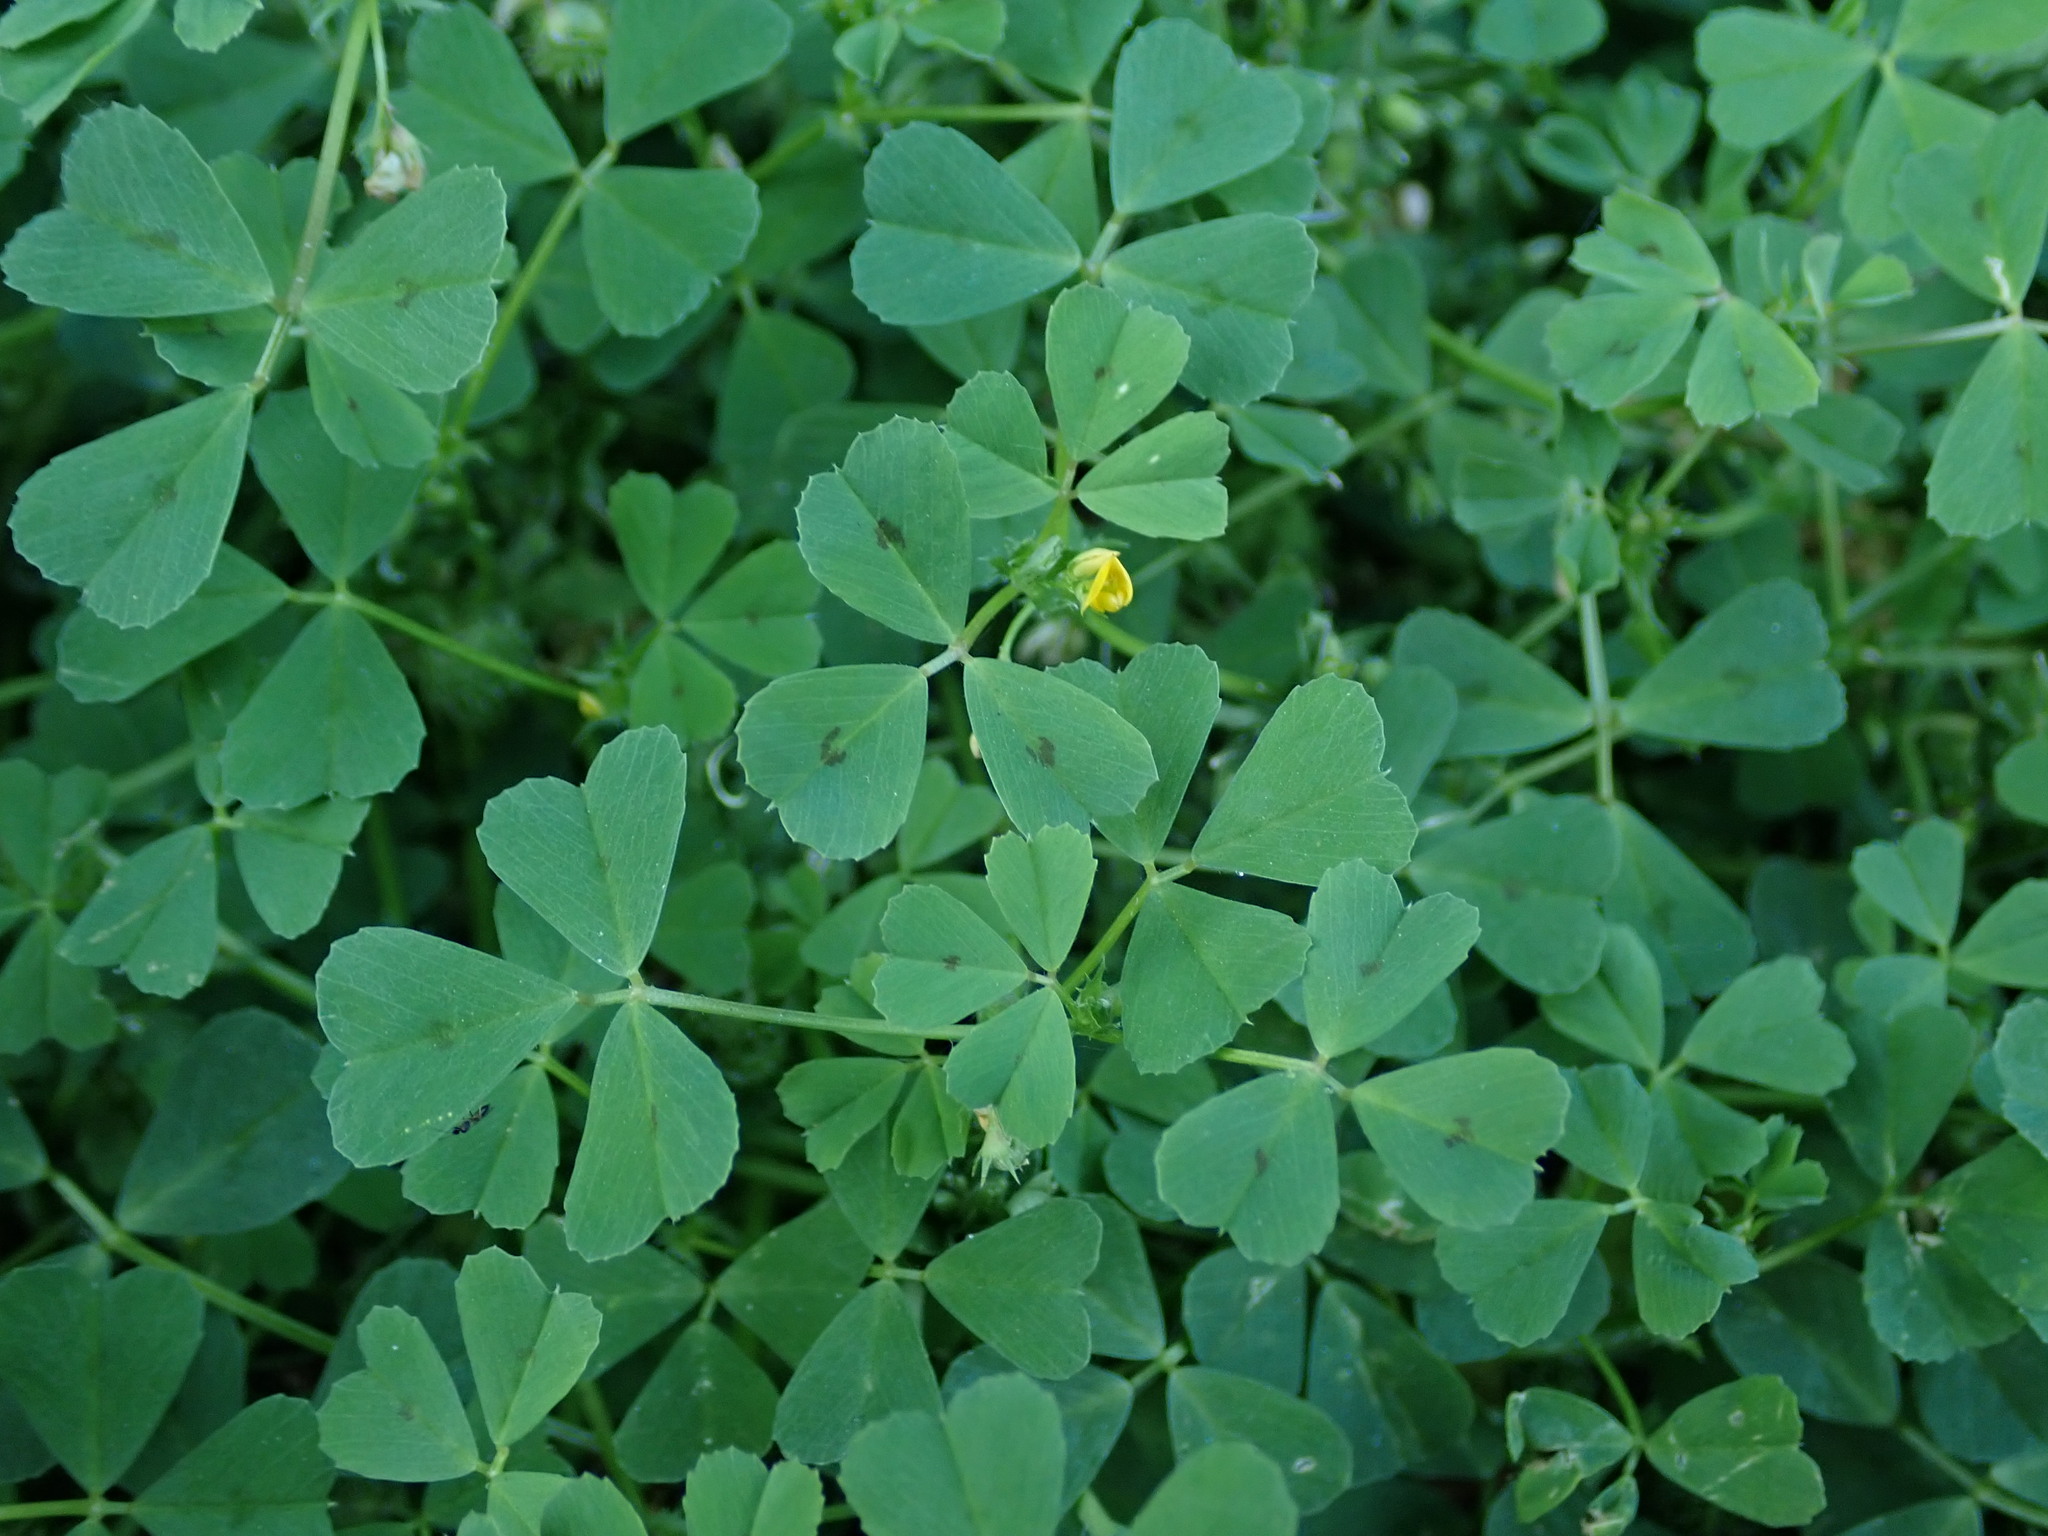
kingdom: Plantae
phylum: Tracheophyta
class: Magnoliopsida
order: Fabales
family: Fabaceae
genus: Medicago
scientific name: Medicago arabica
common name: Spotted medick
